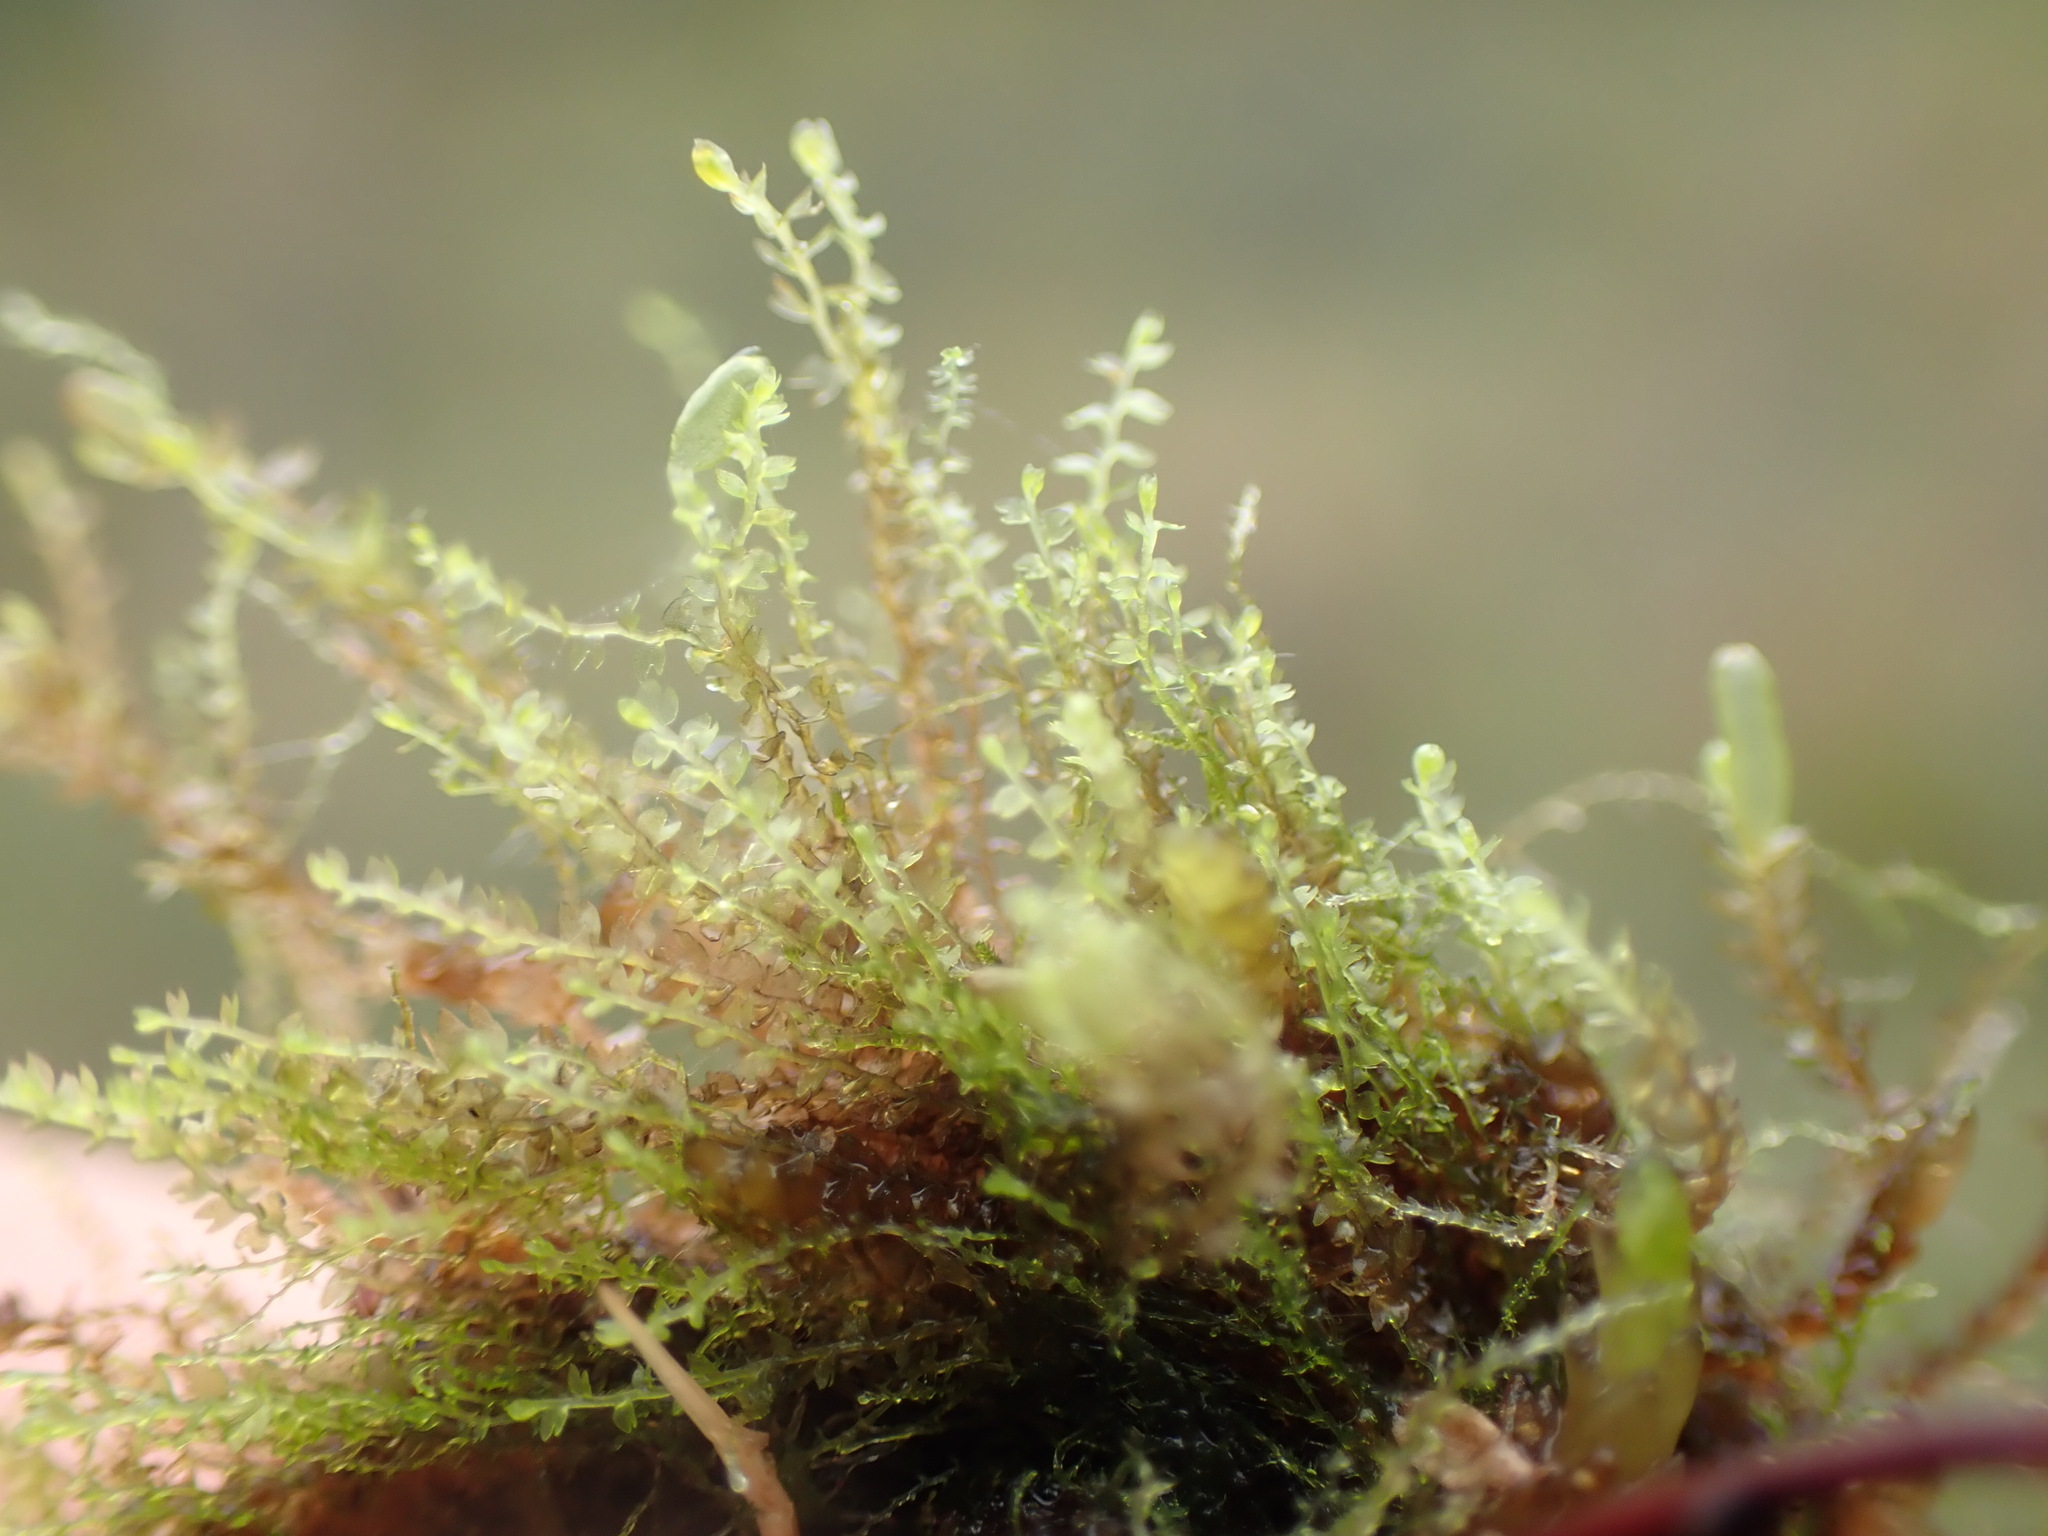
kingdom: Plantae
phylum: Marchantiophyta
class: Jungermanniopsida
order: Jungermanniales
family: Anastrophyllaceae
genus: Gymnocolea
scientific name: Gymnocolea inflata
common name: Inflated notchwort
